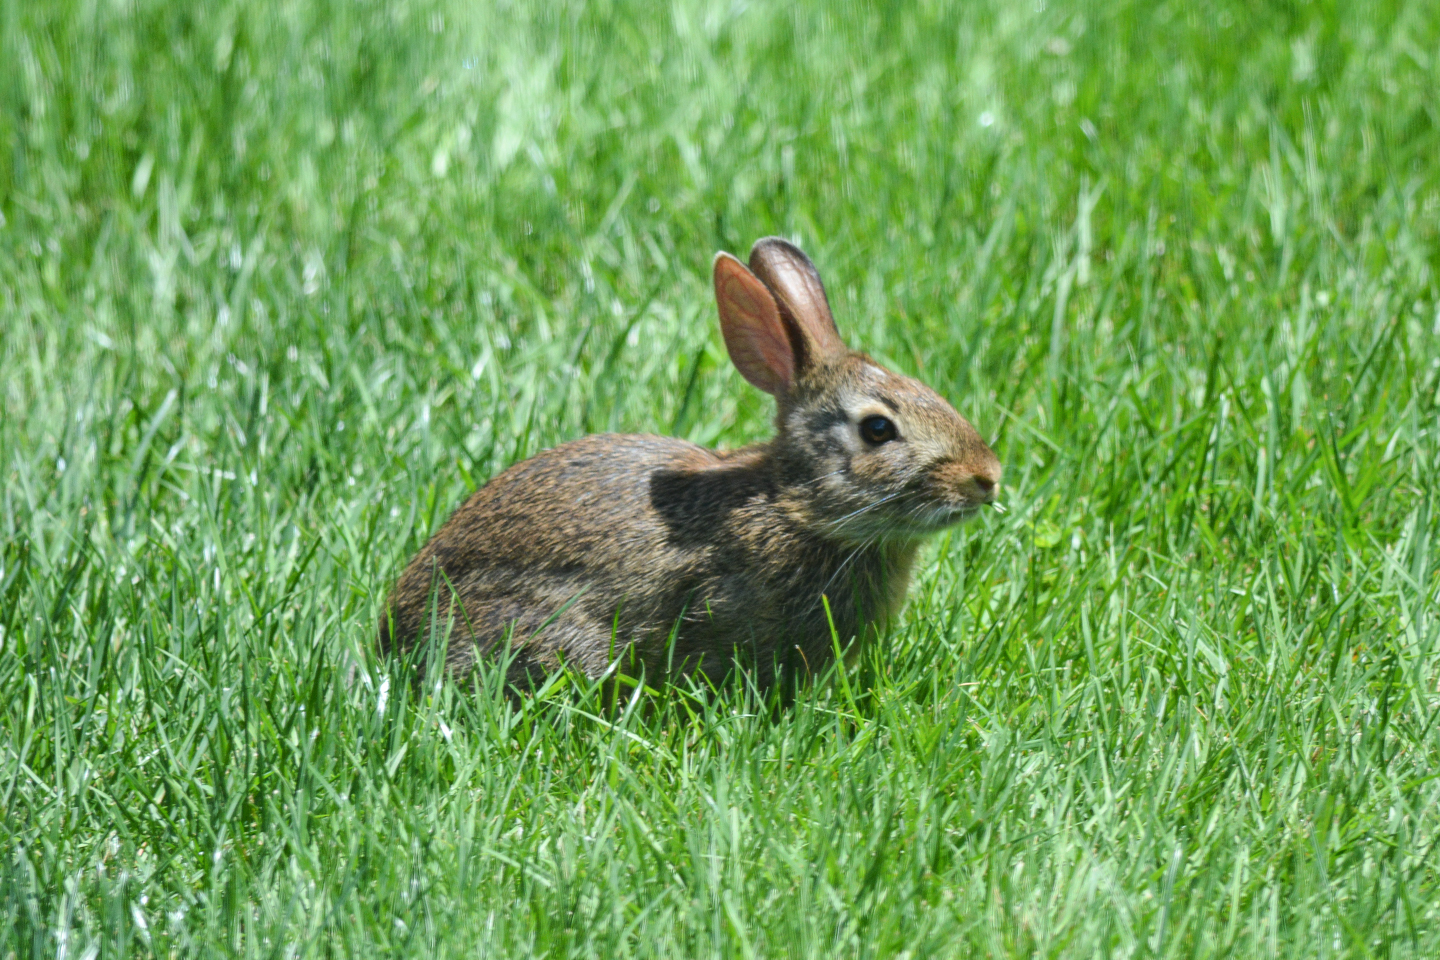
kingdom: Animalia
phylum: Chordata
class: Mammalia
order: Lagomorpha
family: Leporidae
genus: Sylvilagus
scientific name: Sylvilagus floridanus
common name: Eastern cottontail
